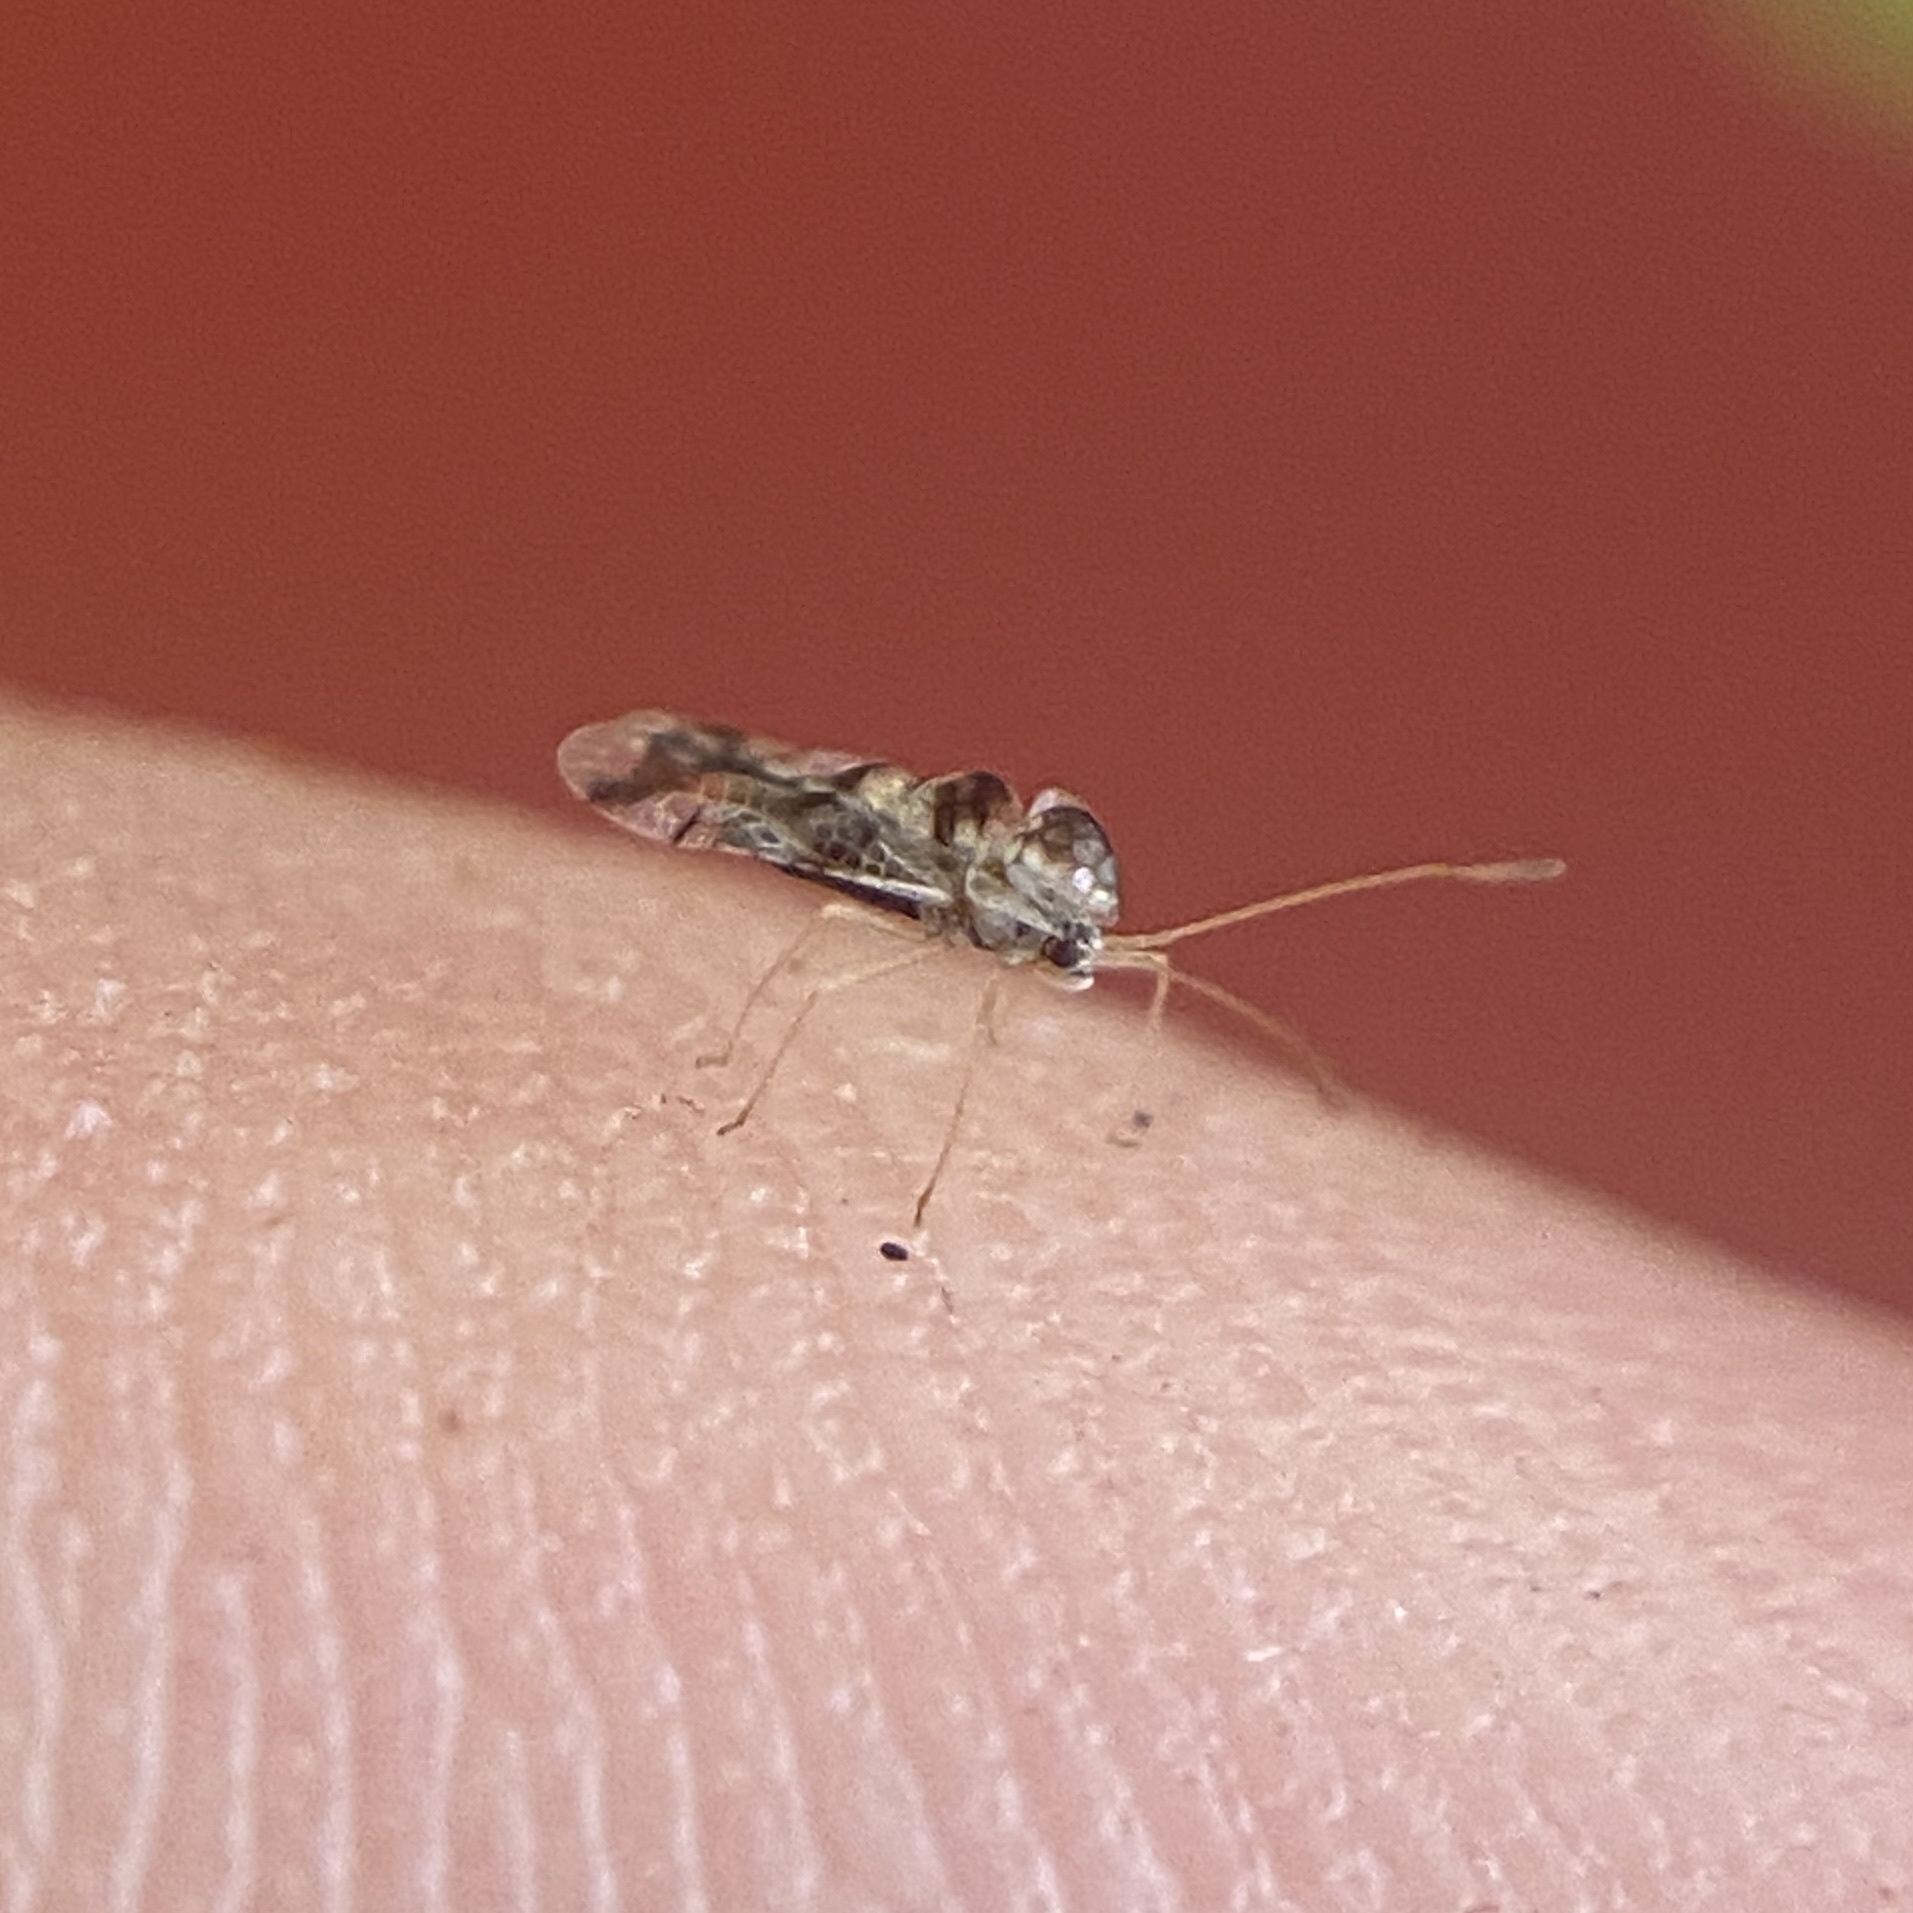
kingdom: Animalia
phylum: Arthropoda
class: Insecta
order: Hemiptera
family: Tingidae
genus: Stephanitis
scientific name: Stephanitis lauri
